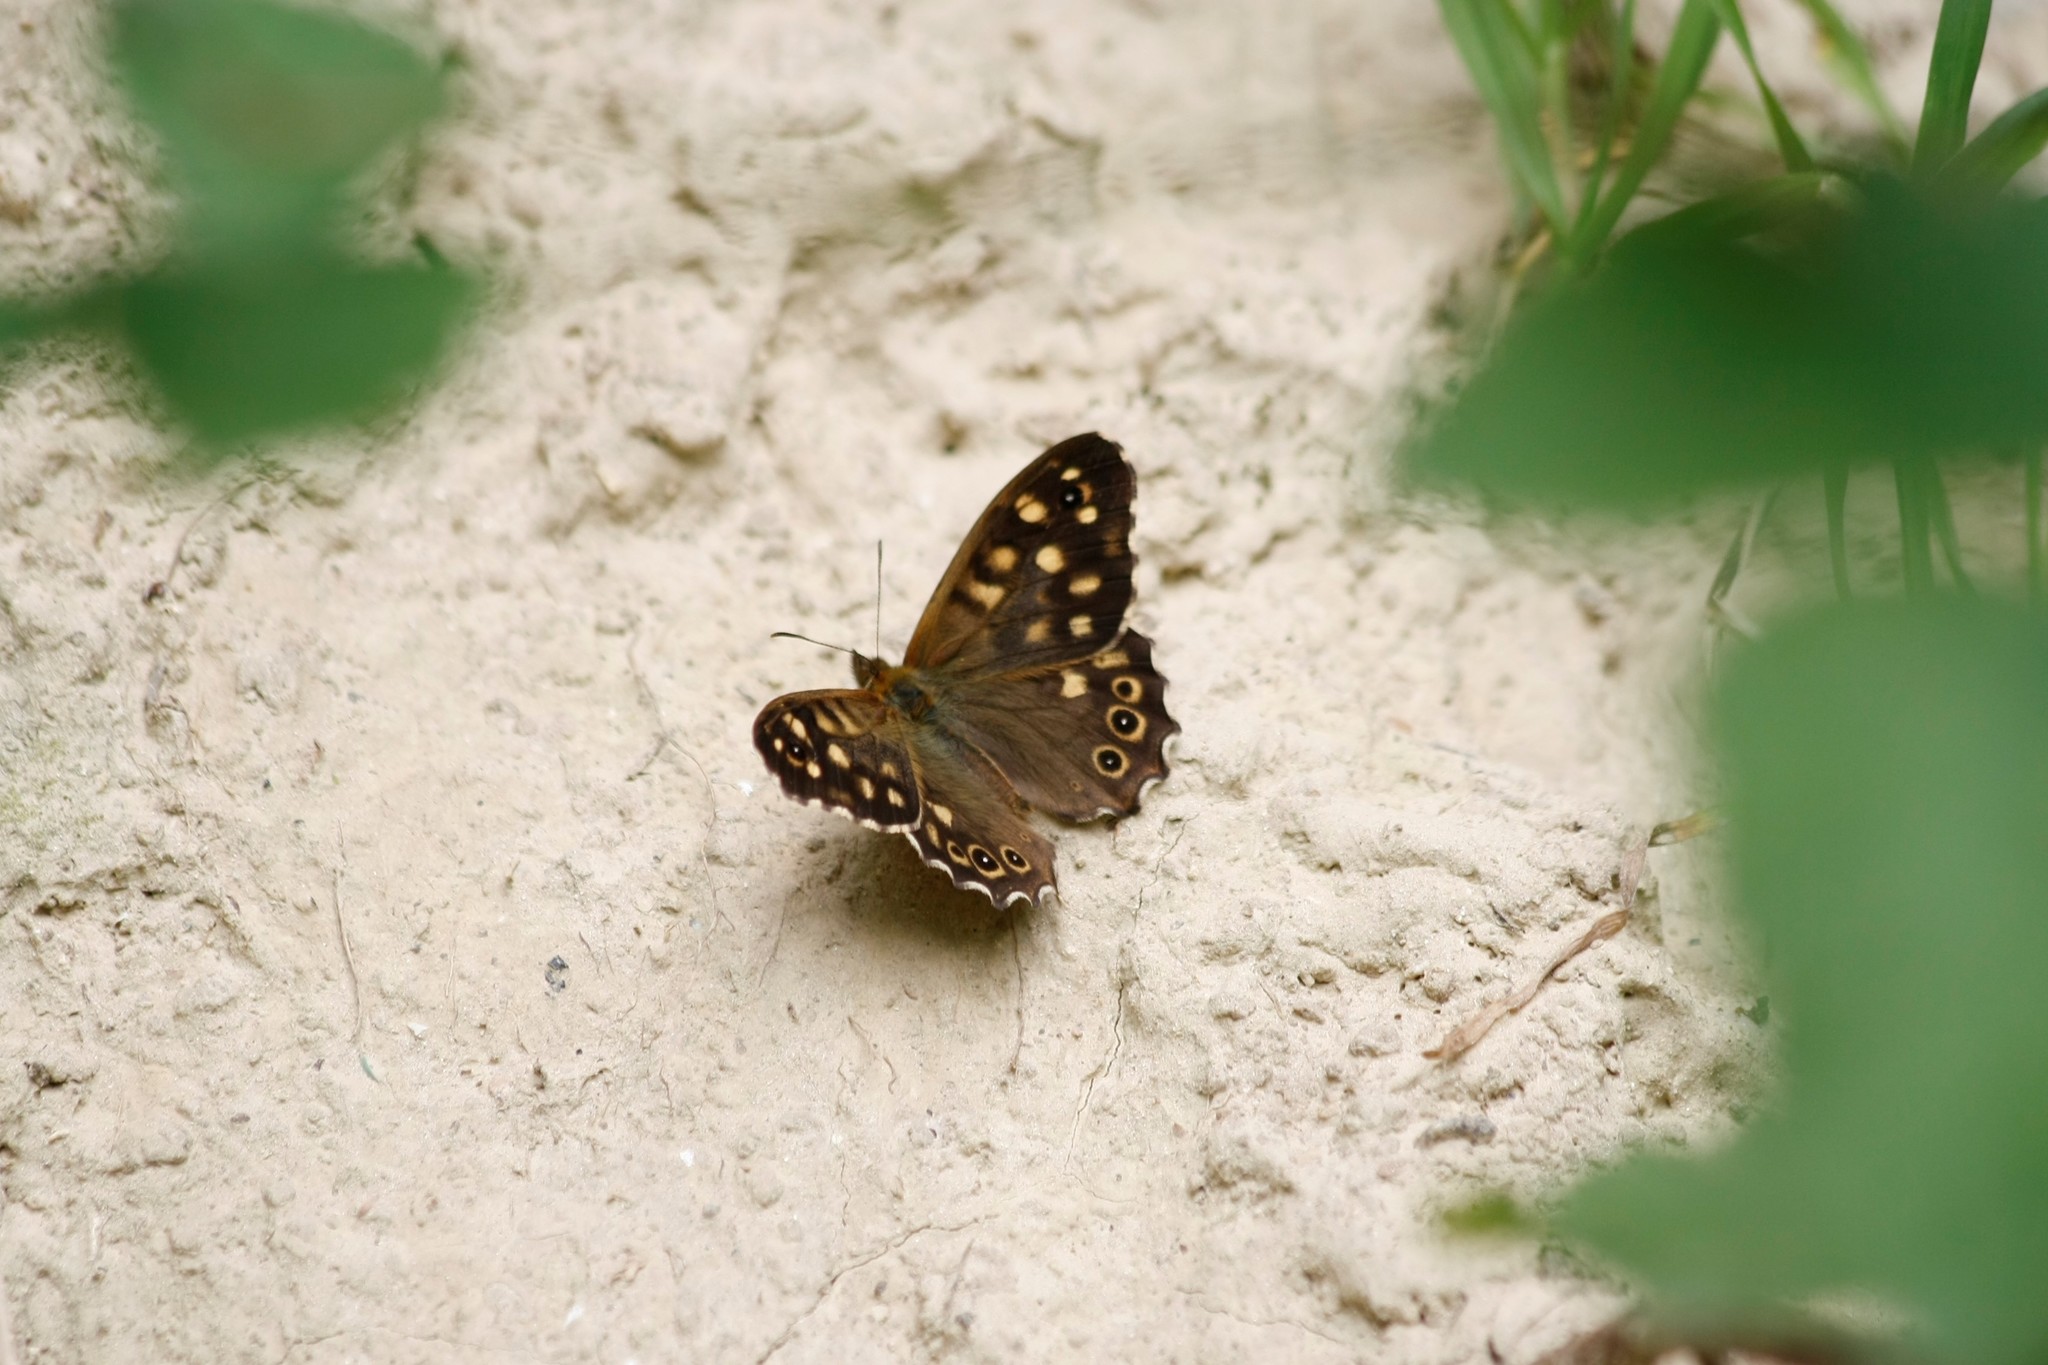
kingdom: Animalia
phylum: Arthropoda
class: Insecta
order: Lepidoptera
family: Nymphalidae
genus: Pararge
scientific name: Pararge aegeria
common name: Speckled wood
